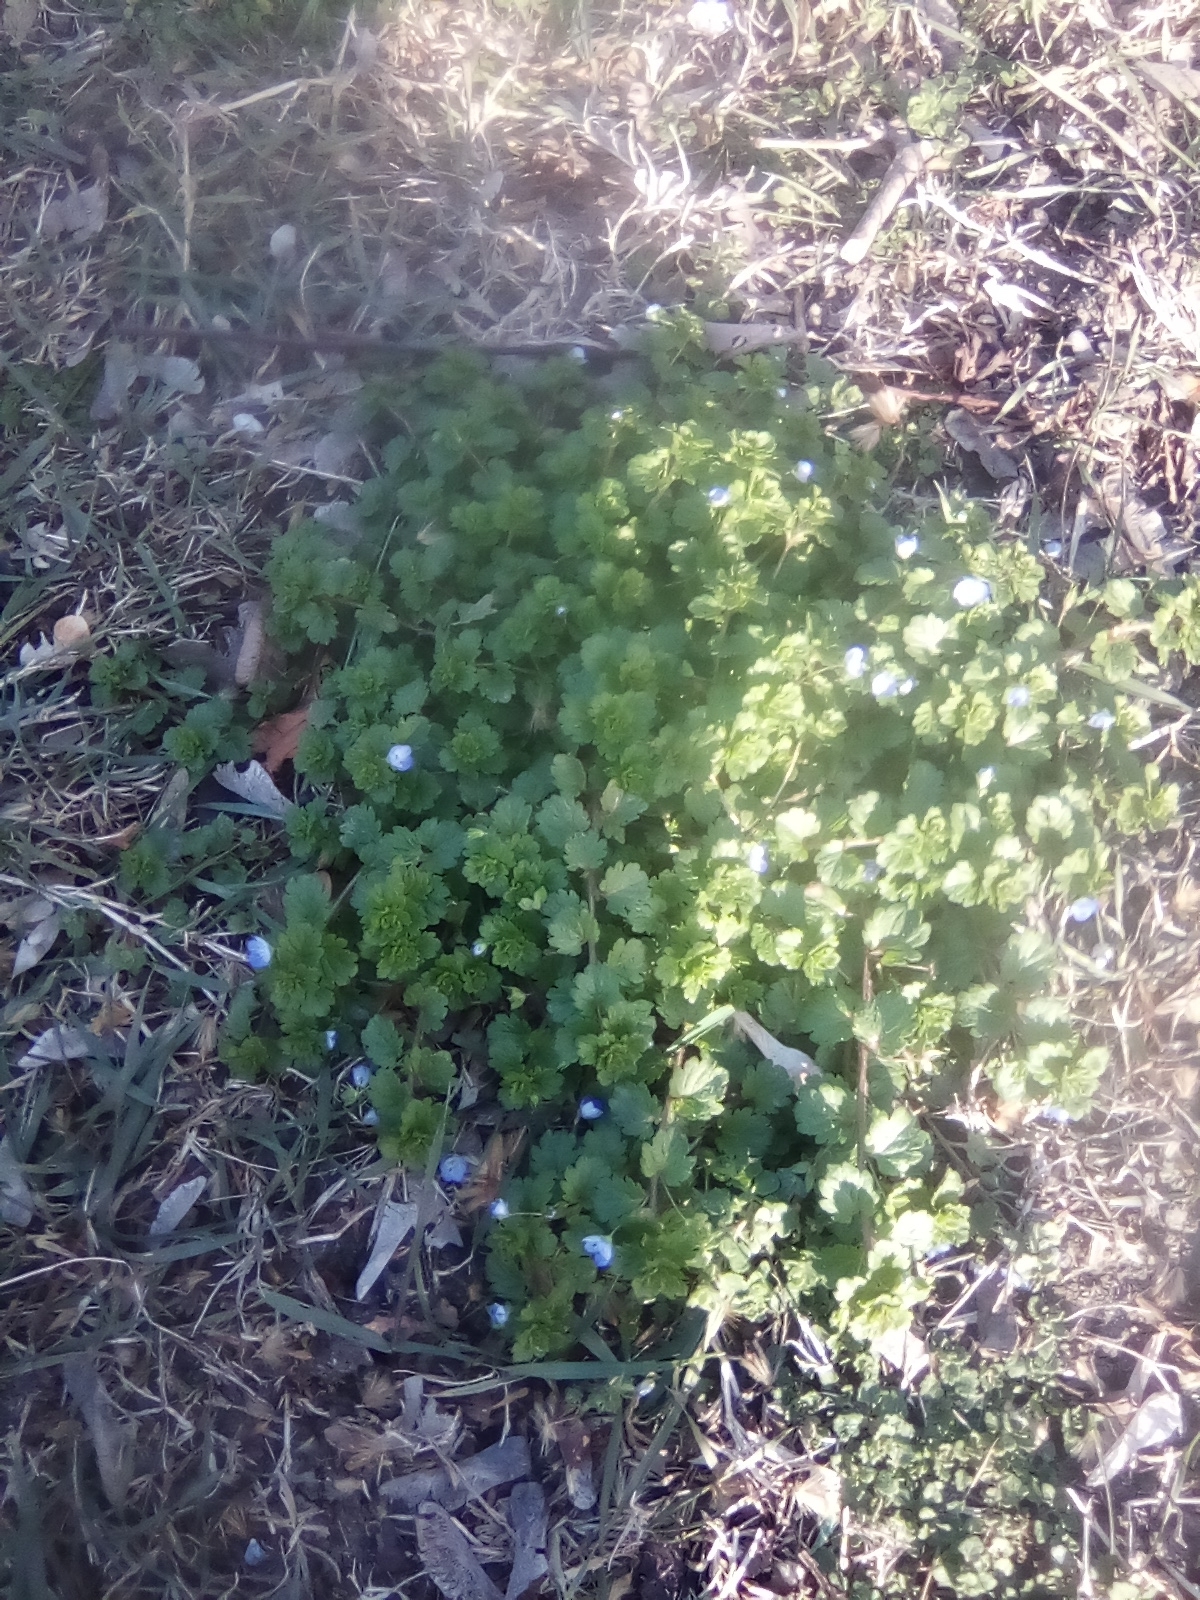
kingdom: Plantae
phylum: Tracheophyta
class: Magnoliopsida
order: Lamiales
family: Plantaginaceae
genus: Veronica
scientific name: Veronica persica
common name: Common field-speedwell
